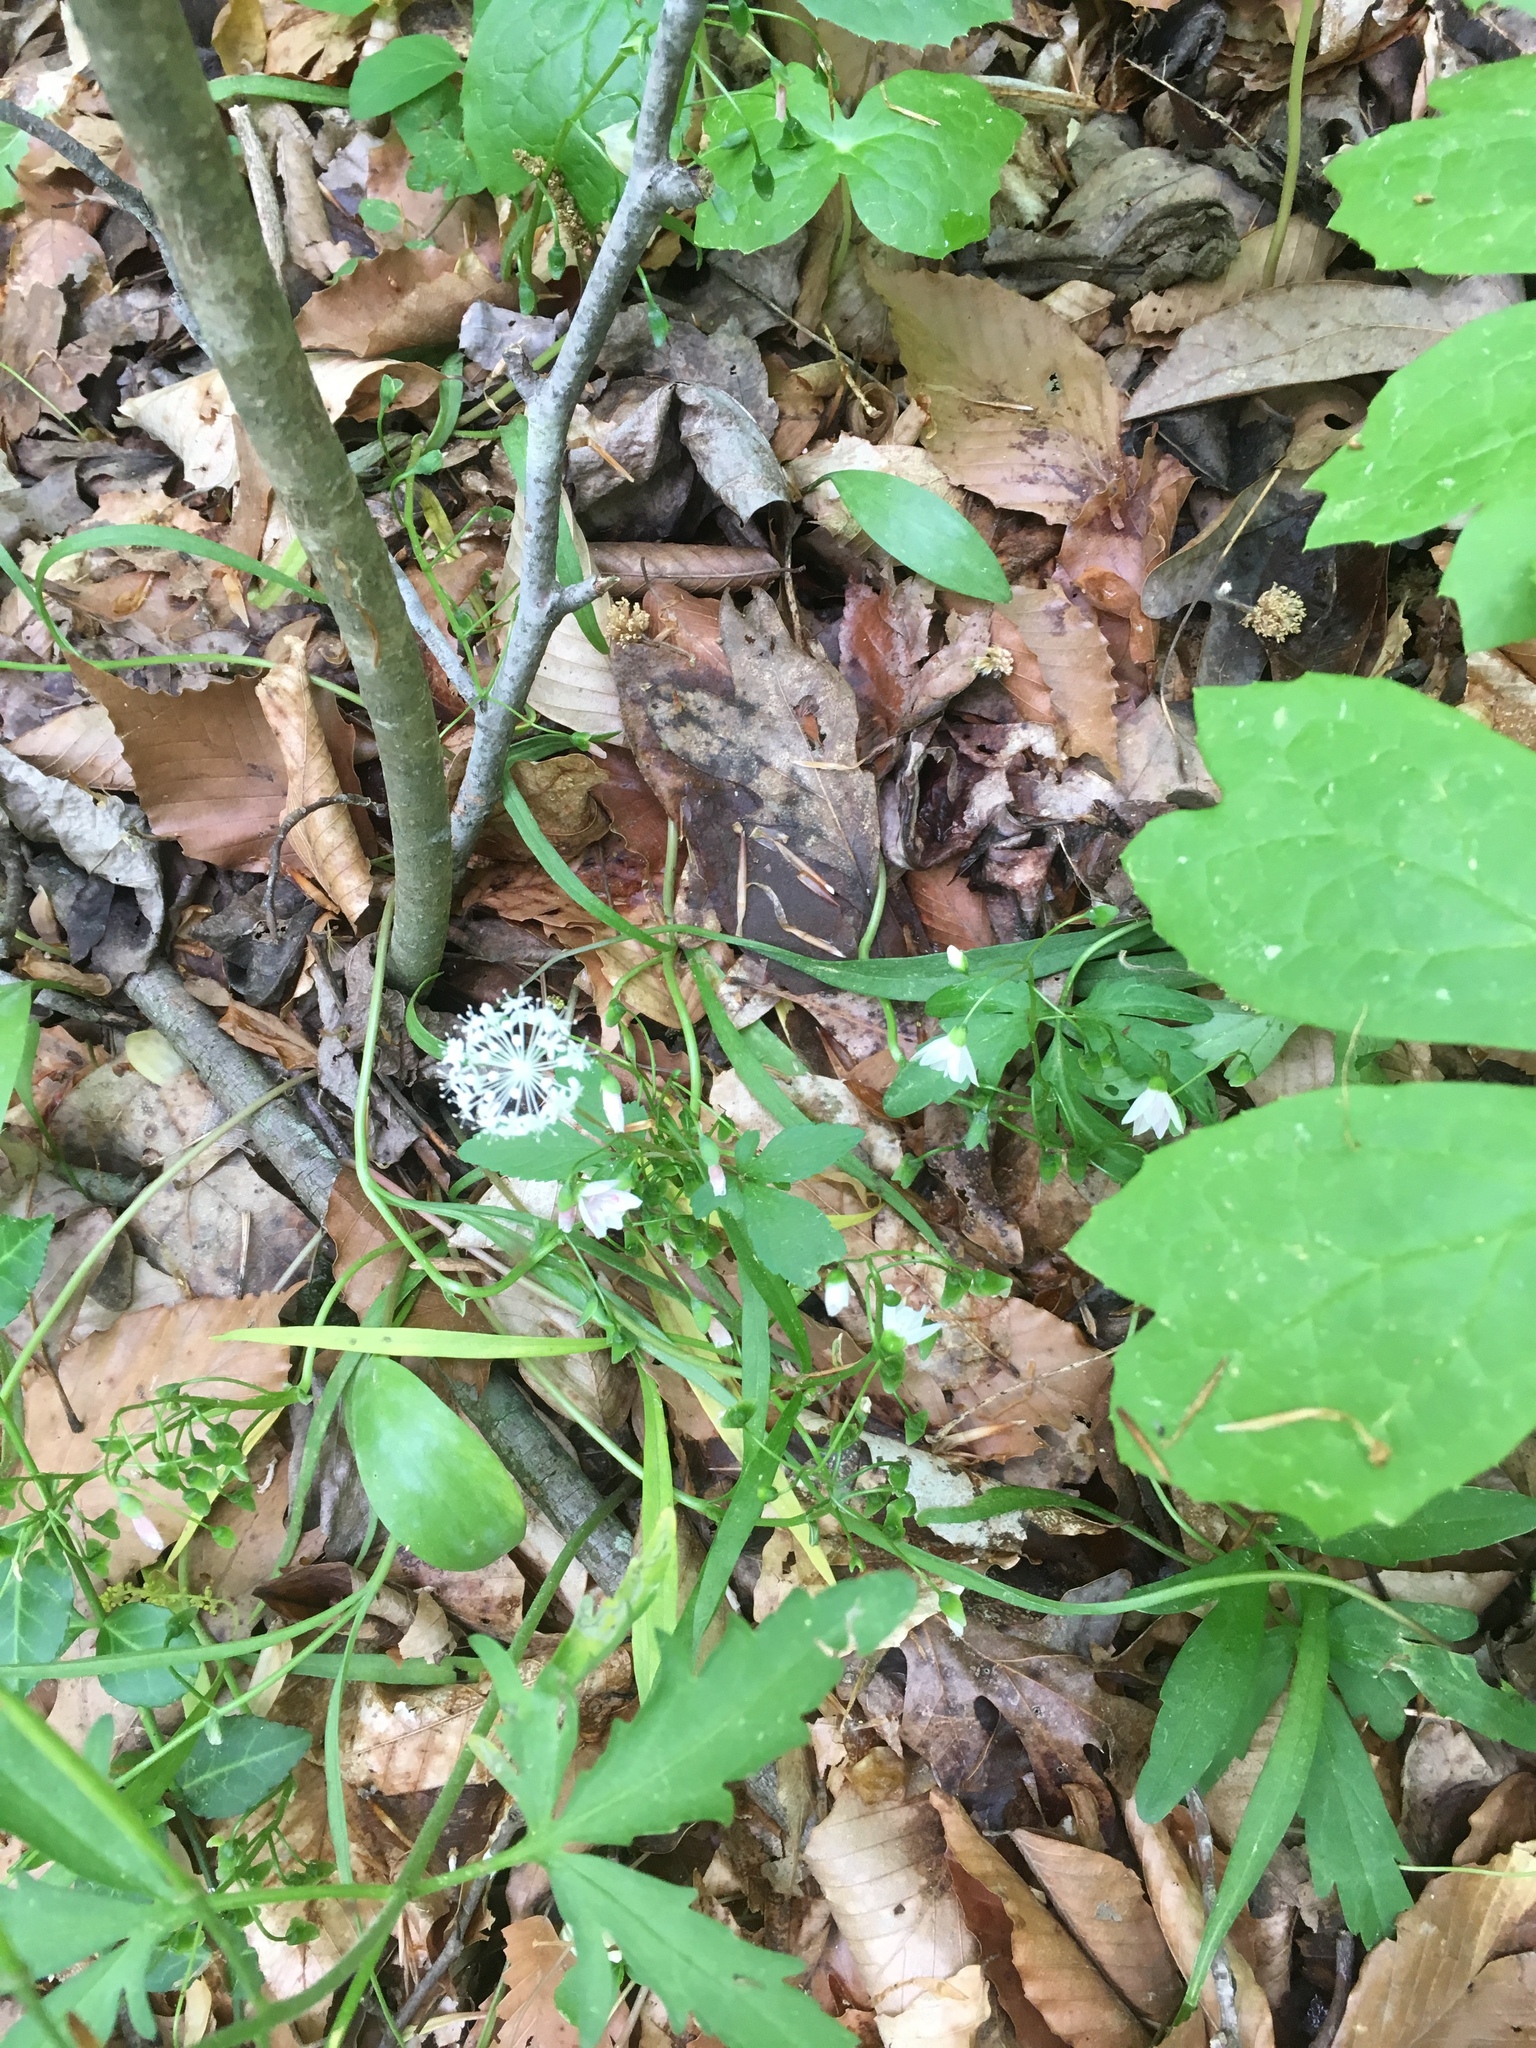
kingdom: Plantae
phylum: Tracheophyta
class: Magnoliopsida
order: Apiales
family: Araliaceae
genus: Panax
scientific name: Panax trifolius
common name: Dwarf ginseng
